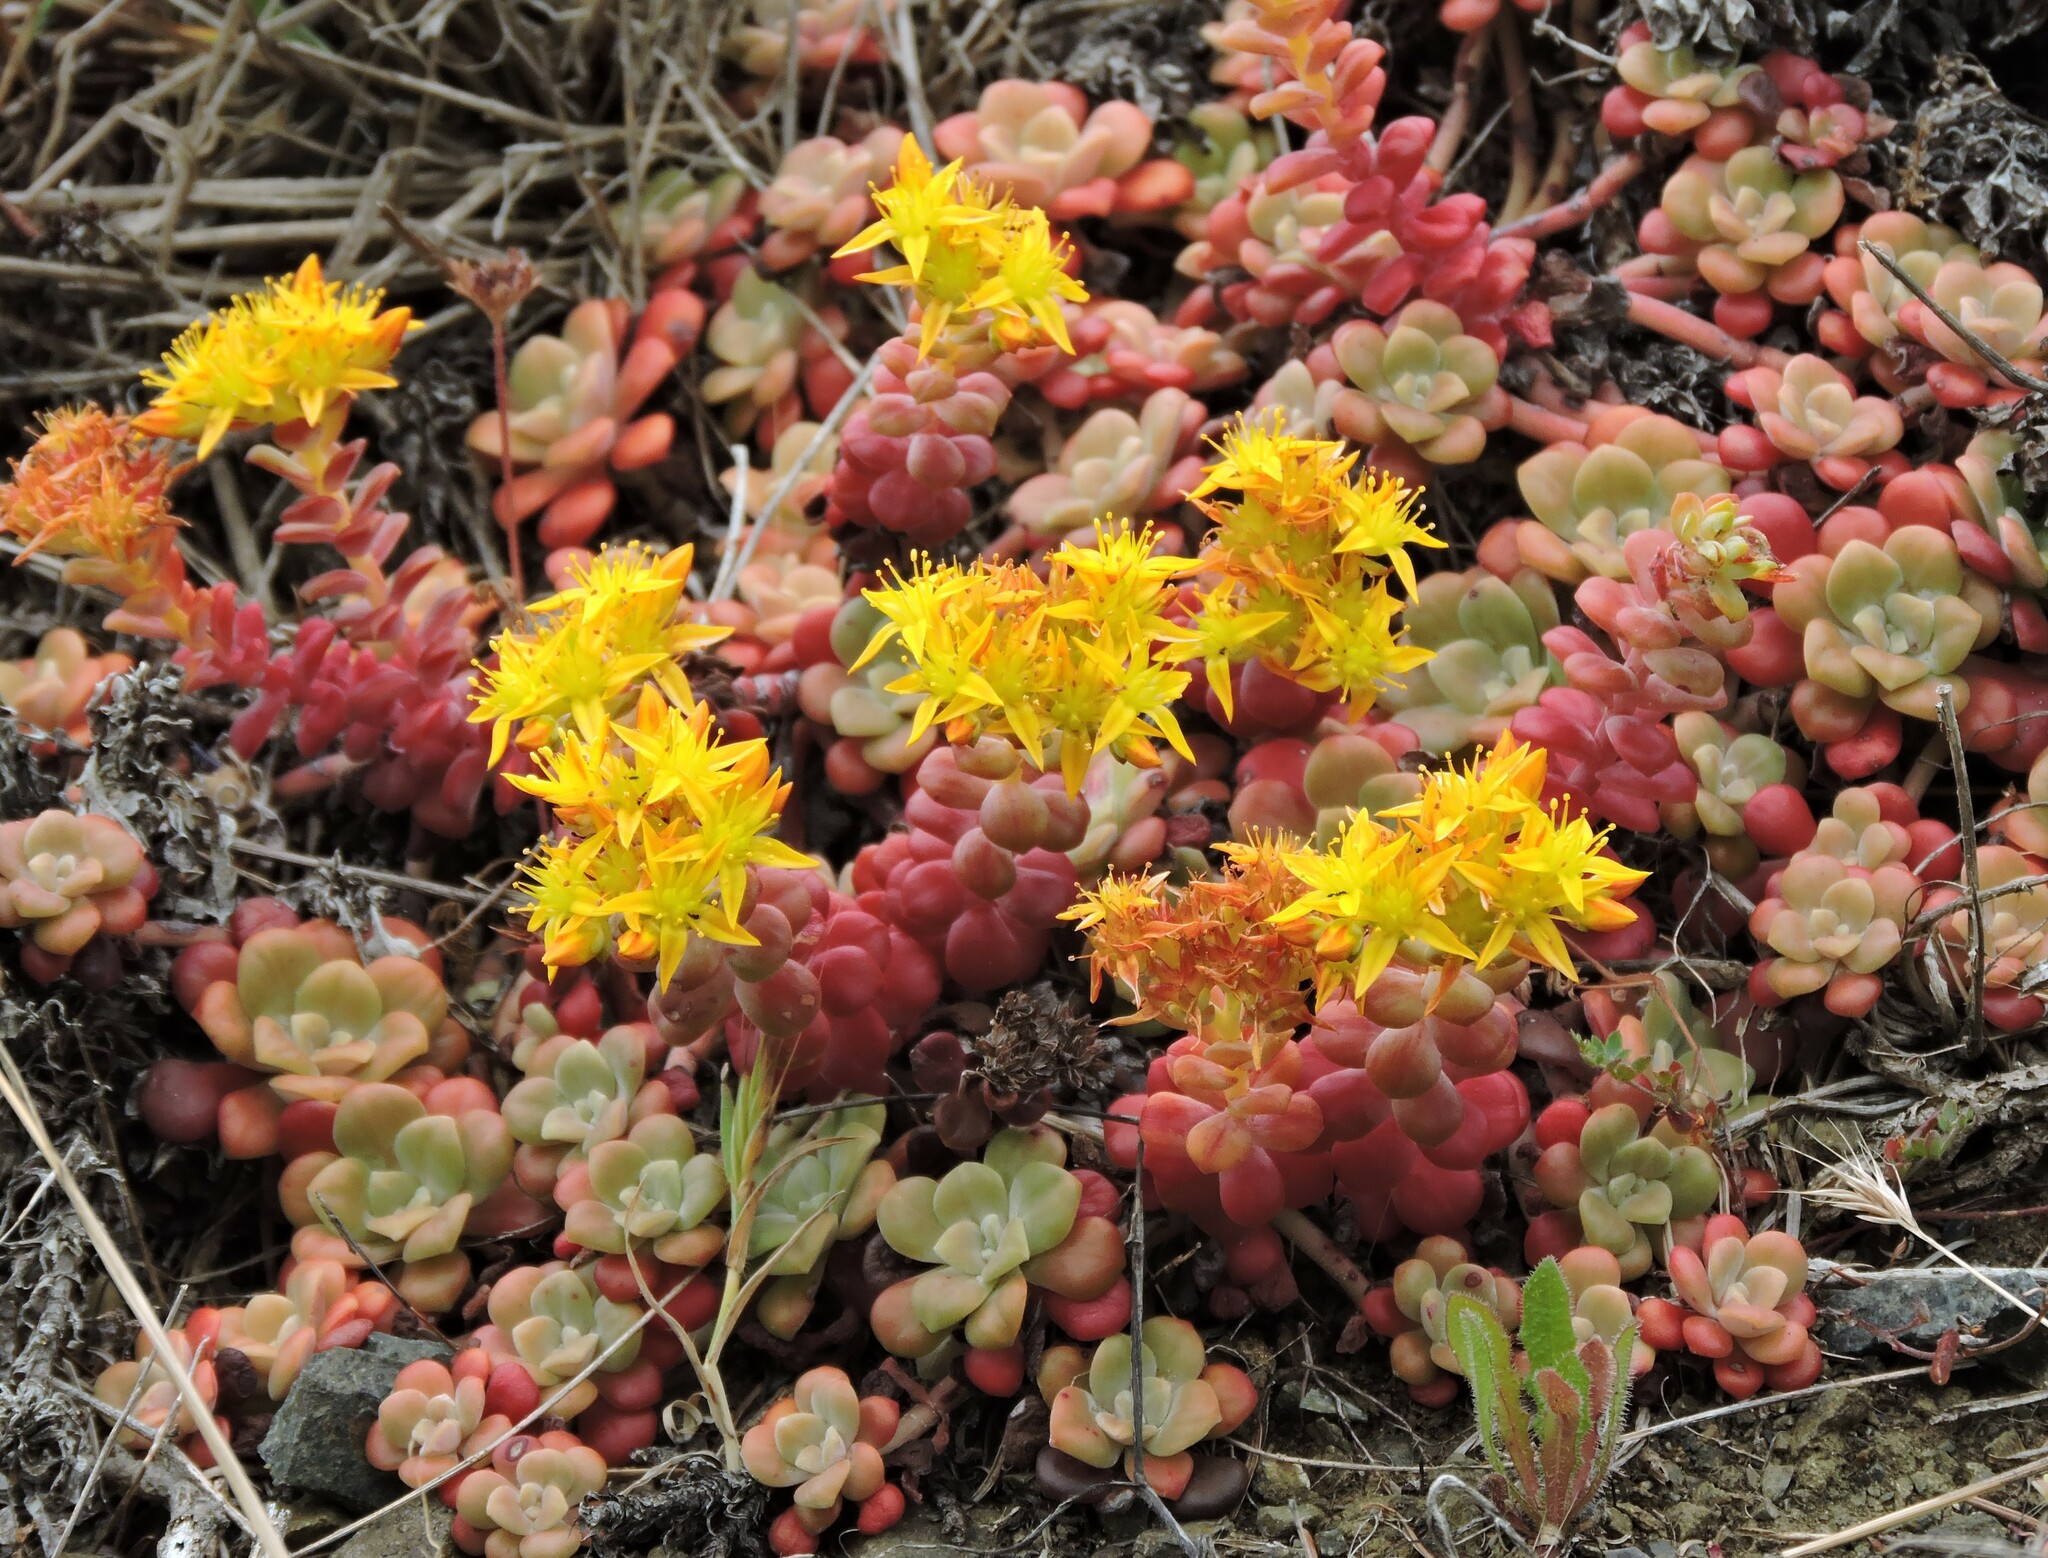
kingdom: Plantae
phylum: Tracheophyta
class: Magnoliopsida
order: Saxifragales
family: Crassulaceae
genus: Sedum
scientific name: Sedum spathulifolium
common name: Colorado stonecrop
